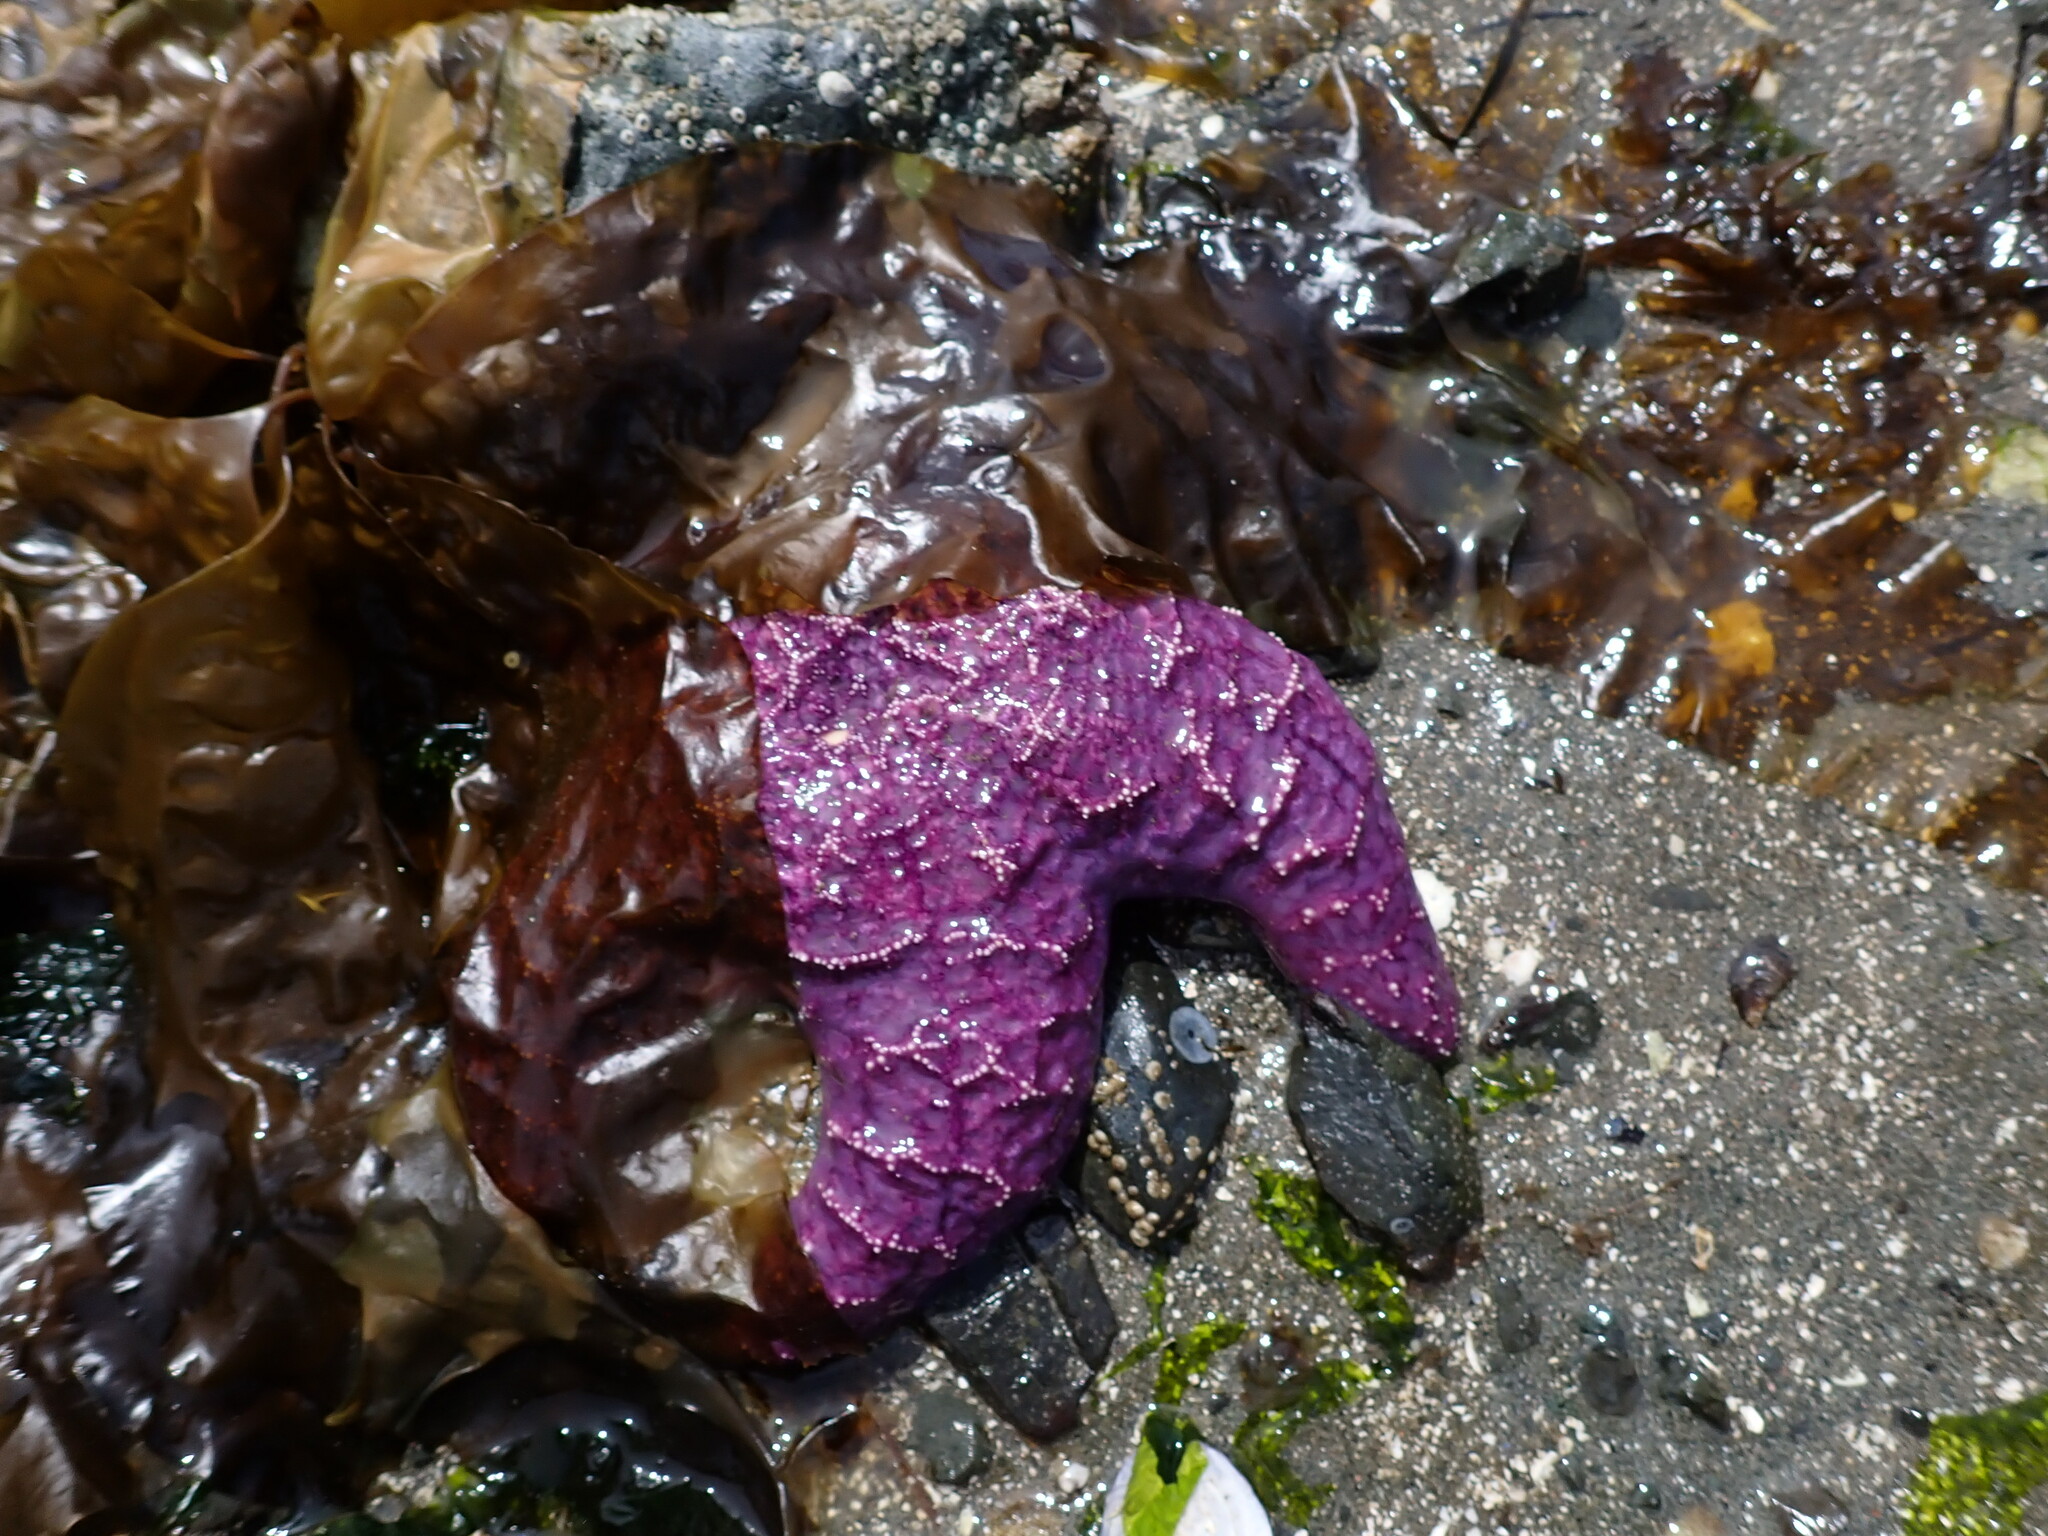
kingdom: Animalia
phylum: Echinodermata
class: Asteroidea
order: Forcipulatida
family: Asteriidae
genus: Pisaster
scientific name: Pisaster ochraceus
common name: Ochre stars
